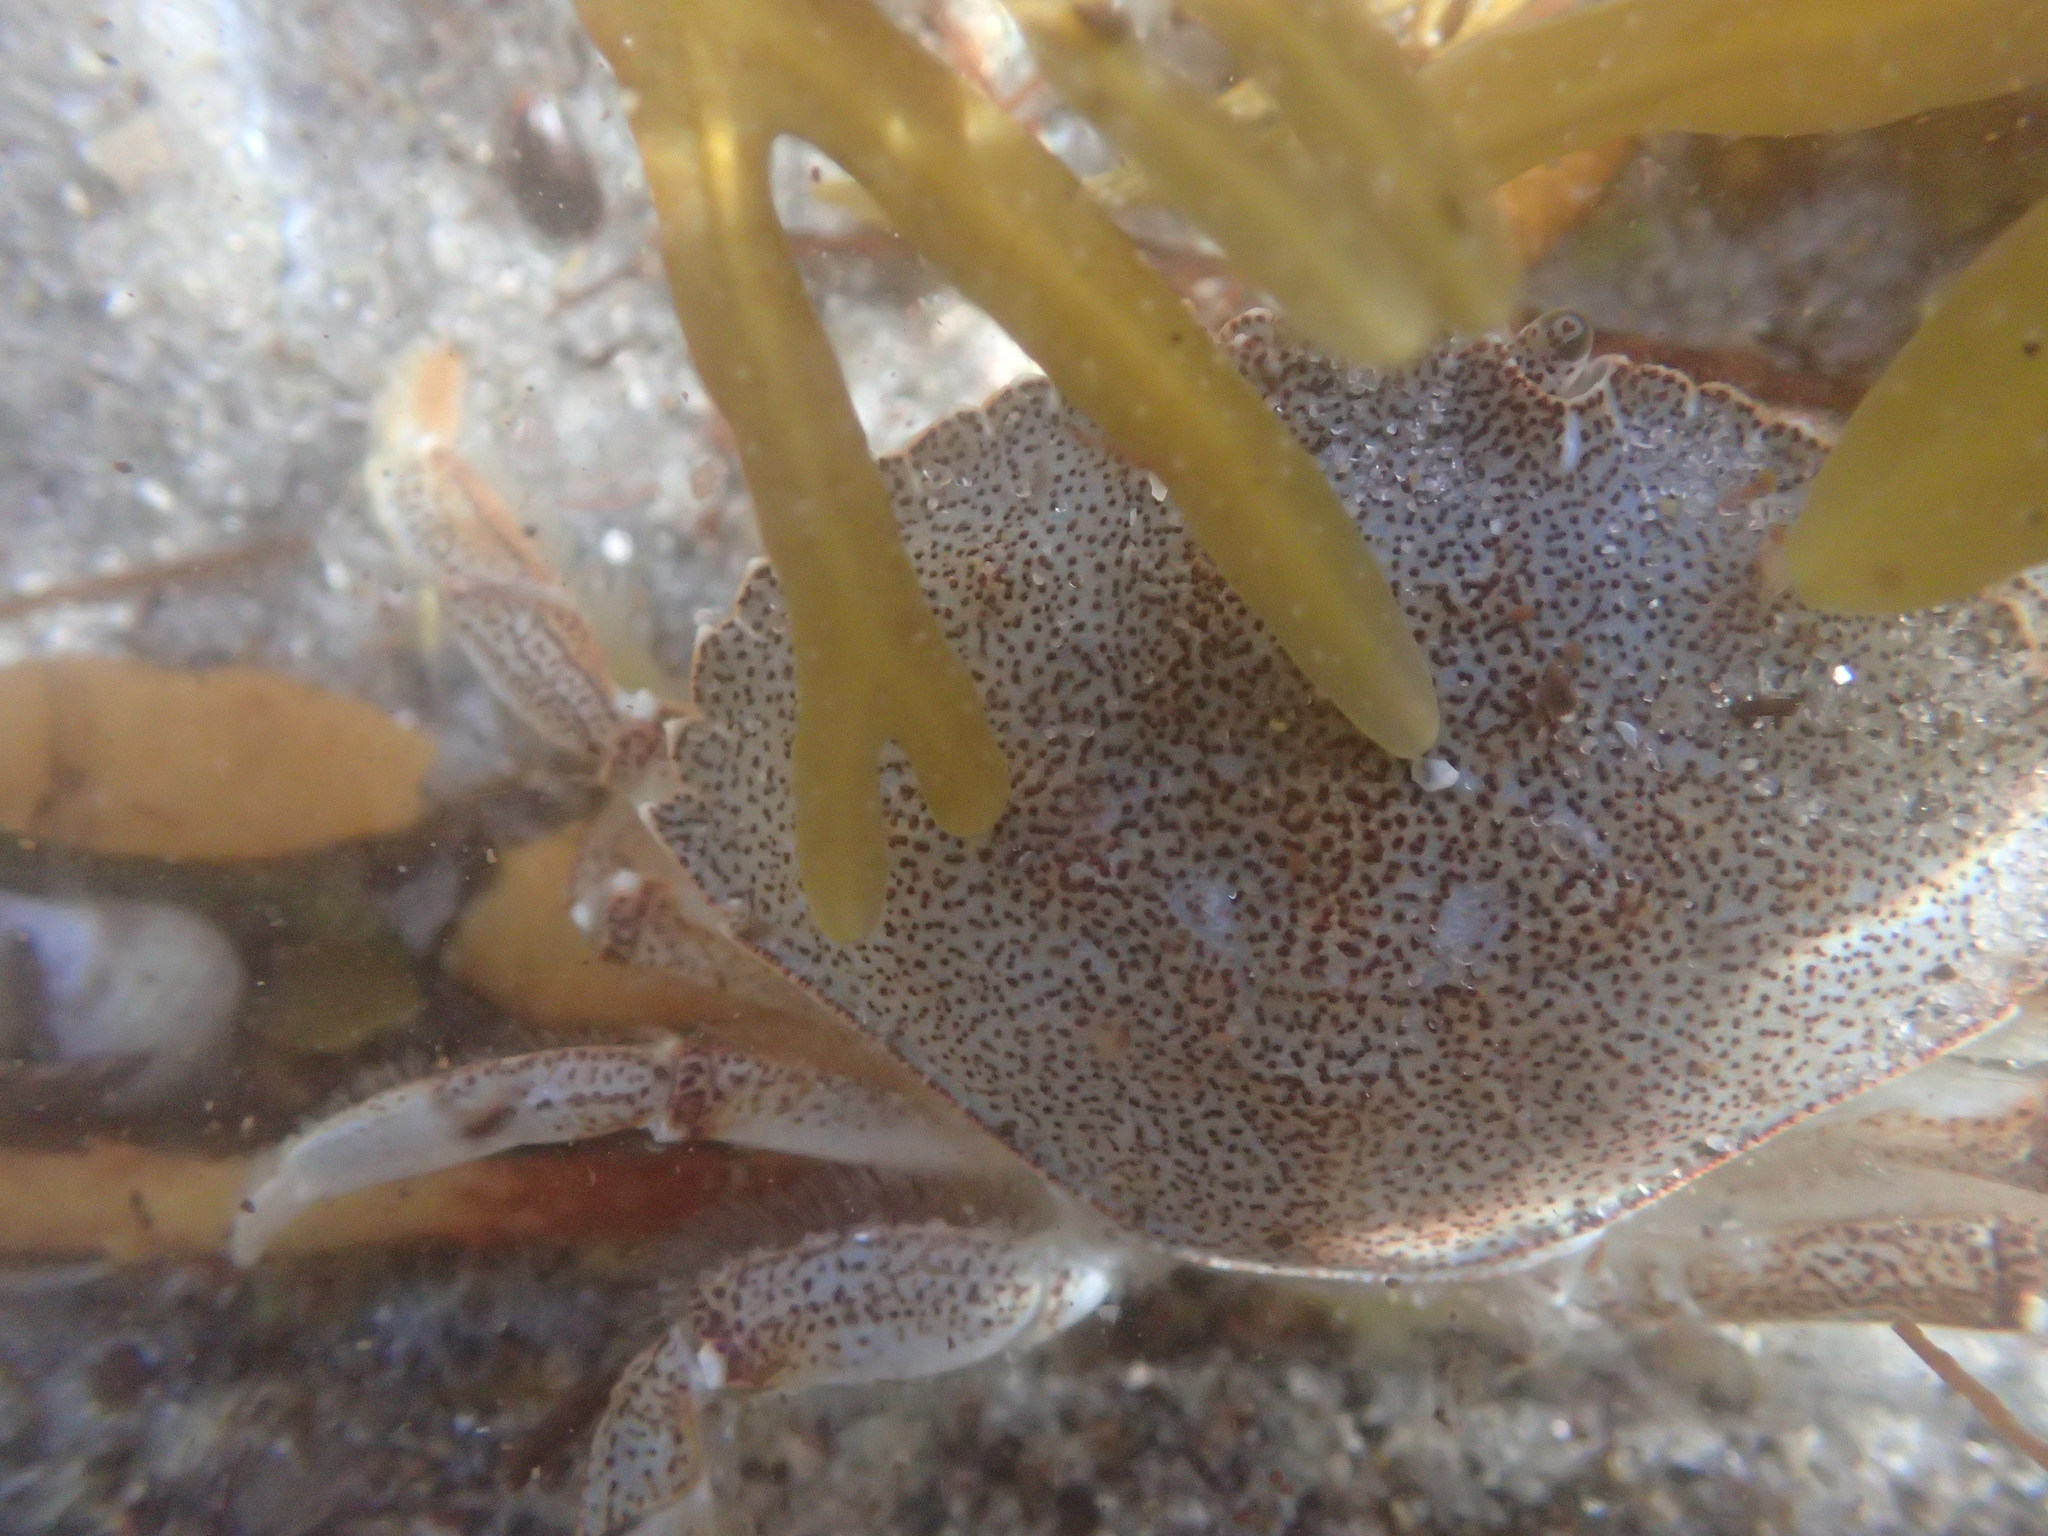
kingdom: Animalia
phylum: Arthropoda
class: Malacostraca
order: Decapoda
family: Cancridae
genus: Cancer
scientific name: Cancer irroratus
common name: Atlantic rock crab
